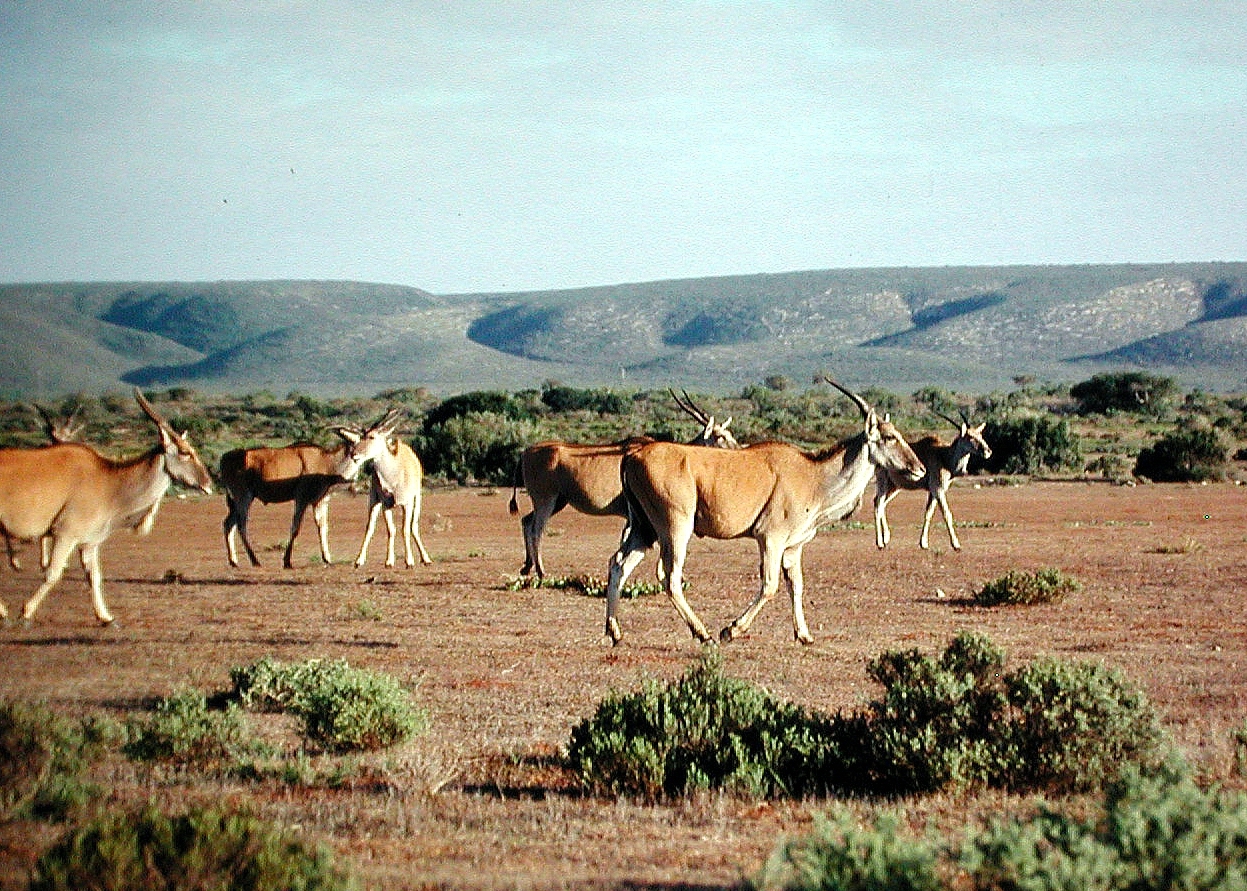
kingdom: Animalia
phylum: Chordata
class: Mammalia
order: Artiodactyla
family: Bovidae
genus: Taurotragus
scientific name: Taurotragus oryx
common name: Common eland
